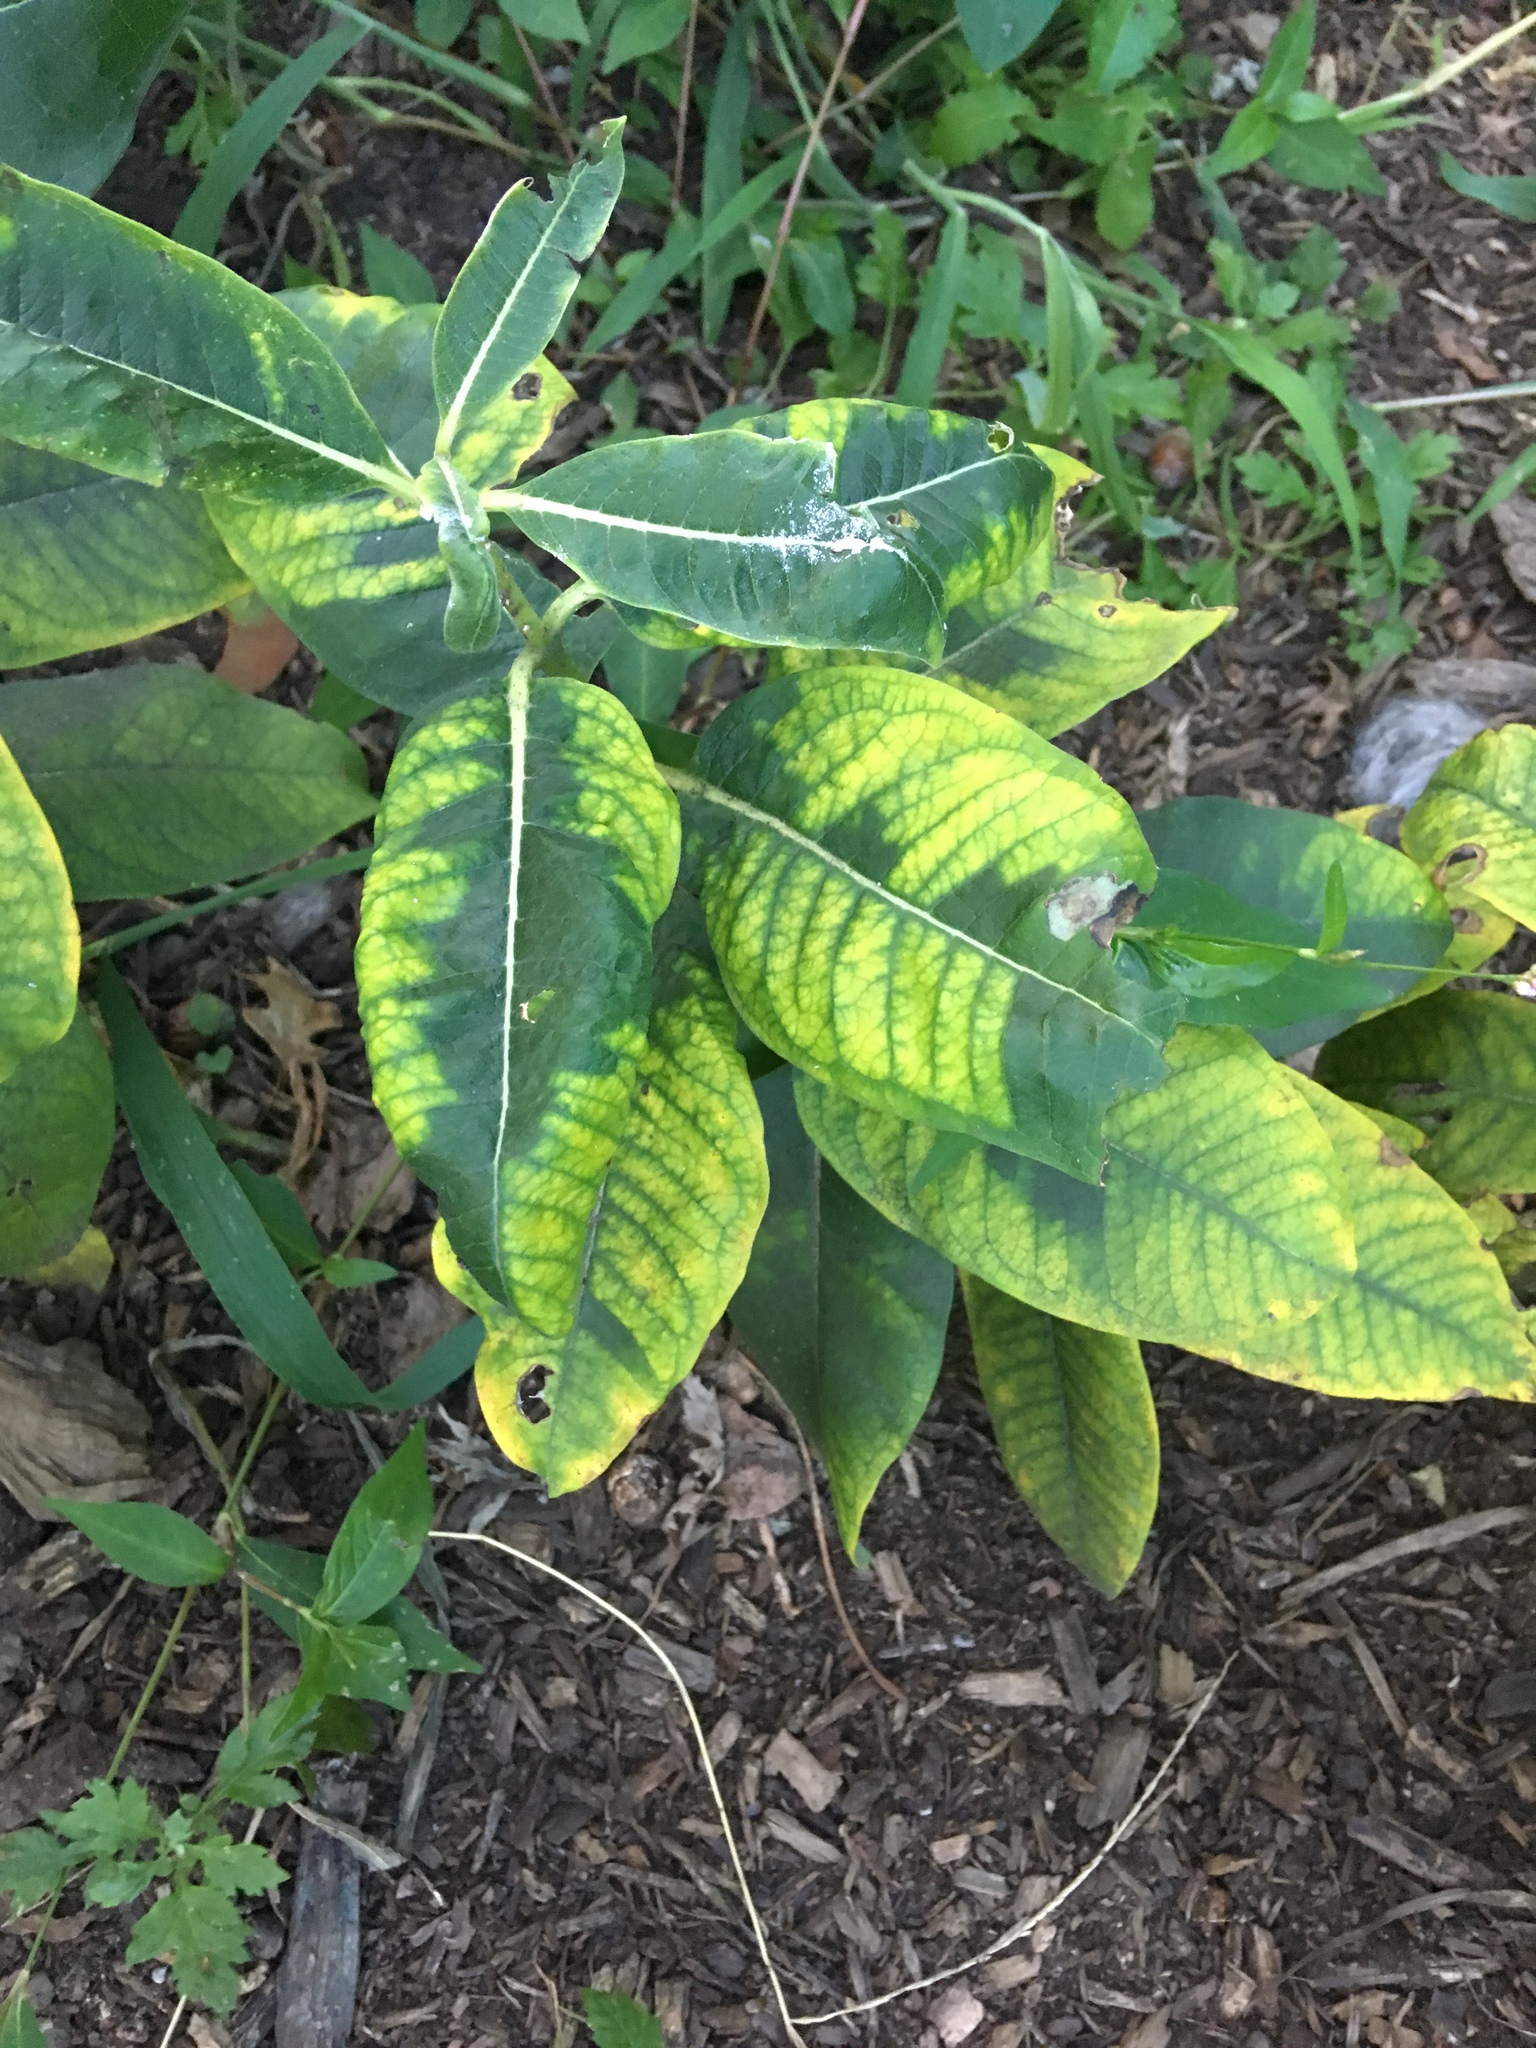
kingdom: Plantae
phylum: Tracheophyta
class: Magnoliopsida
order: Gentianales
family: Apocynaceae
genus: Asclepias
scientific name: Asclepias syriaca
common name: Common milkweed
